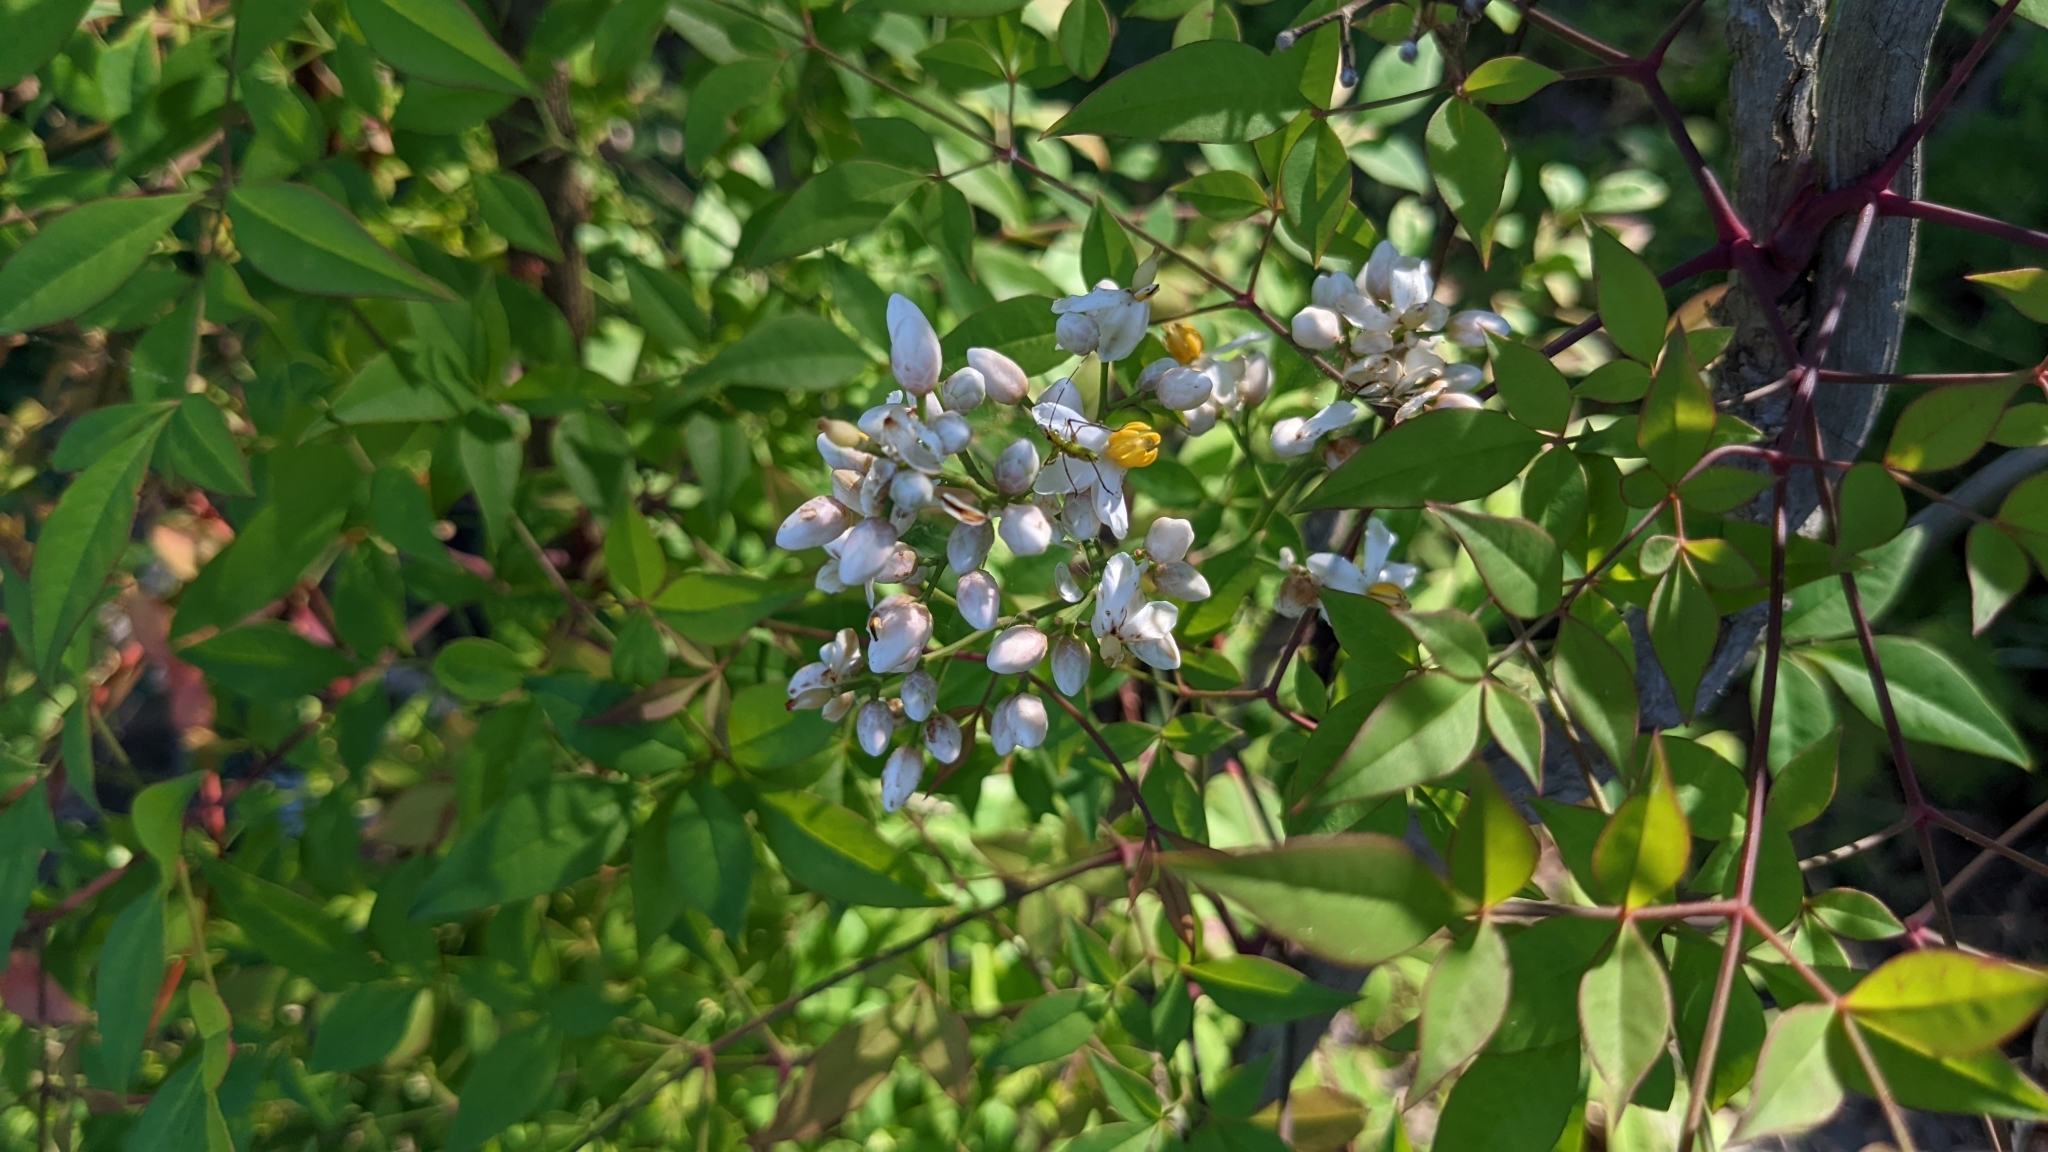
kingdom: Plantae
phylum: Tracheophyta
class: Magnoliopsida
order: Ranunculales
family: Berberidaceae
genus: Nandina
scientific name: Nandina domestica
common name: Sacred bamboo
